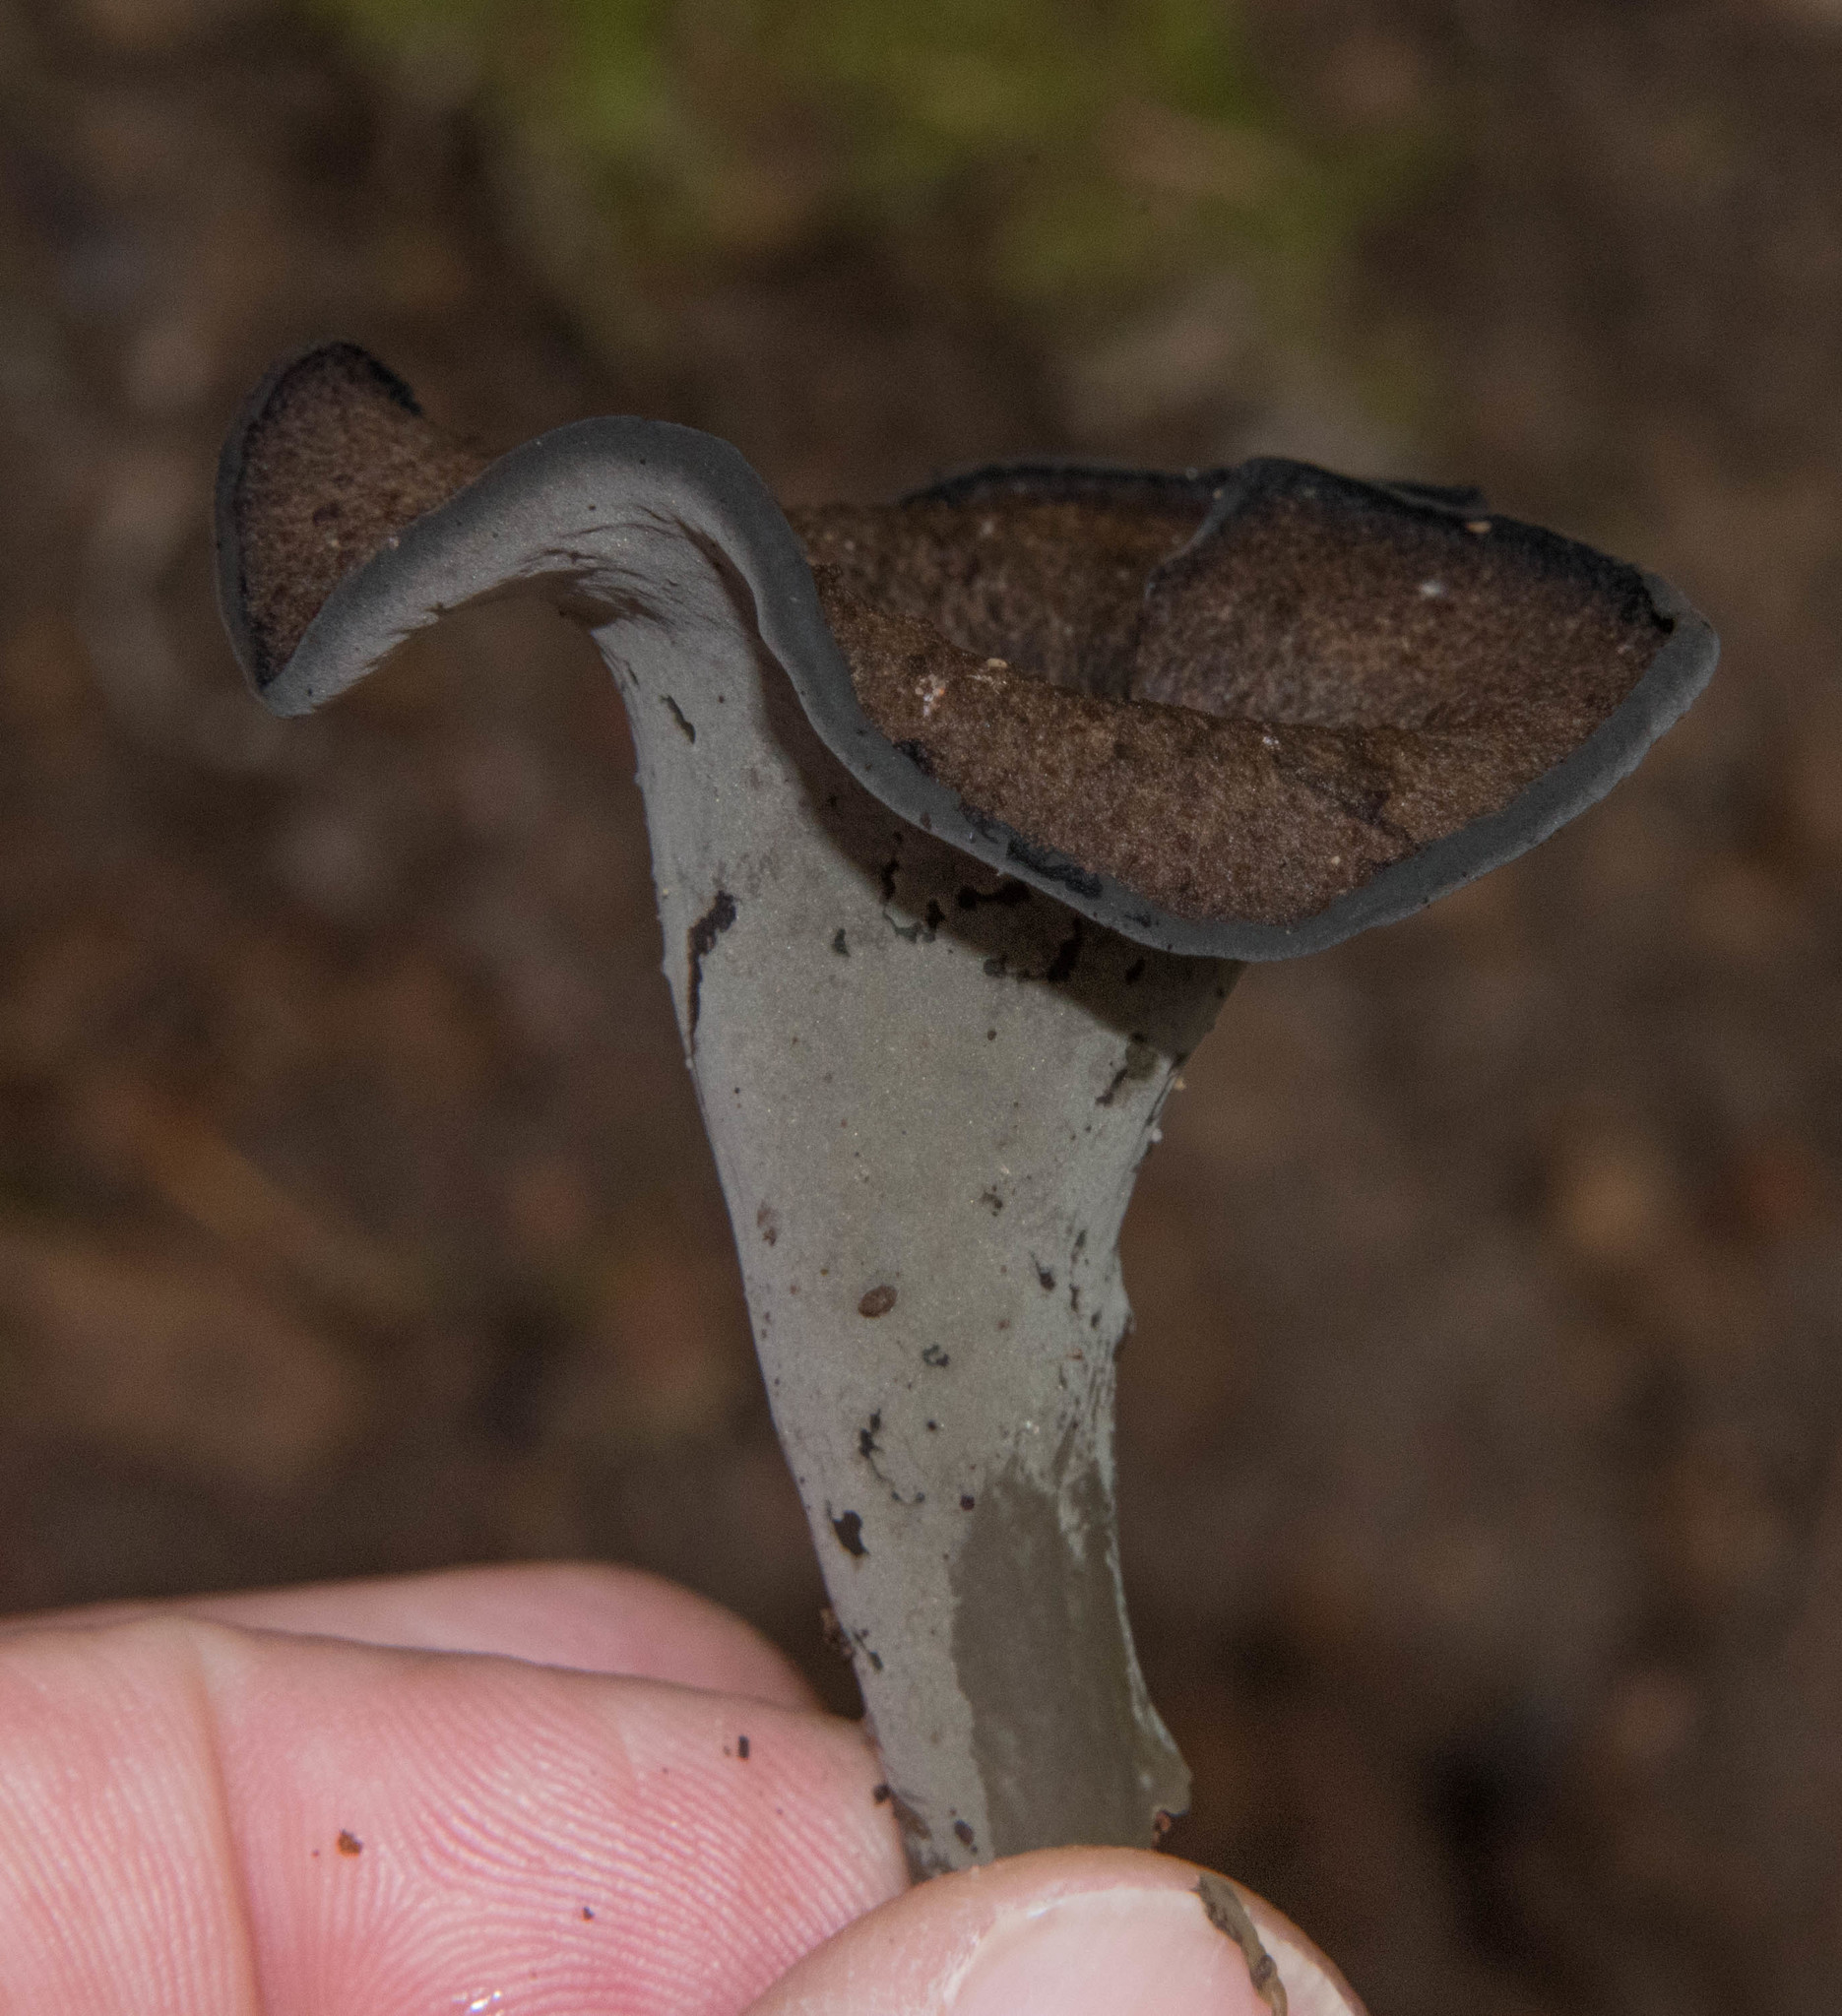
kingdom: Fungi
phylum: Basidiomycota
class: Agaricomycetes
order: Cantharellales
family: Hydnaceae
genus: Craterellus
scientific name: Craterellus calicornucopioides
